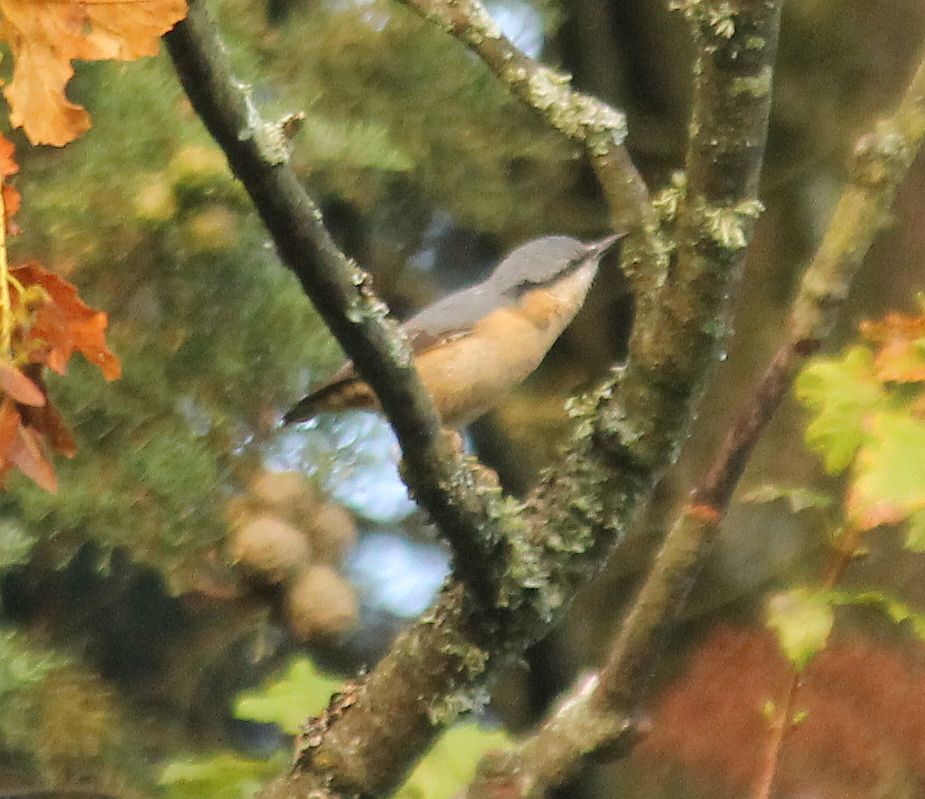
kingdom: Animalia
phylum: Chordata
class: Aves
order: Passeriformes
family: Sittidae
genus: Sitta
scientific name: Sitta europaea
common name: Eurasian nuthatch
